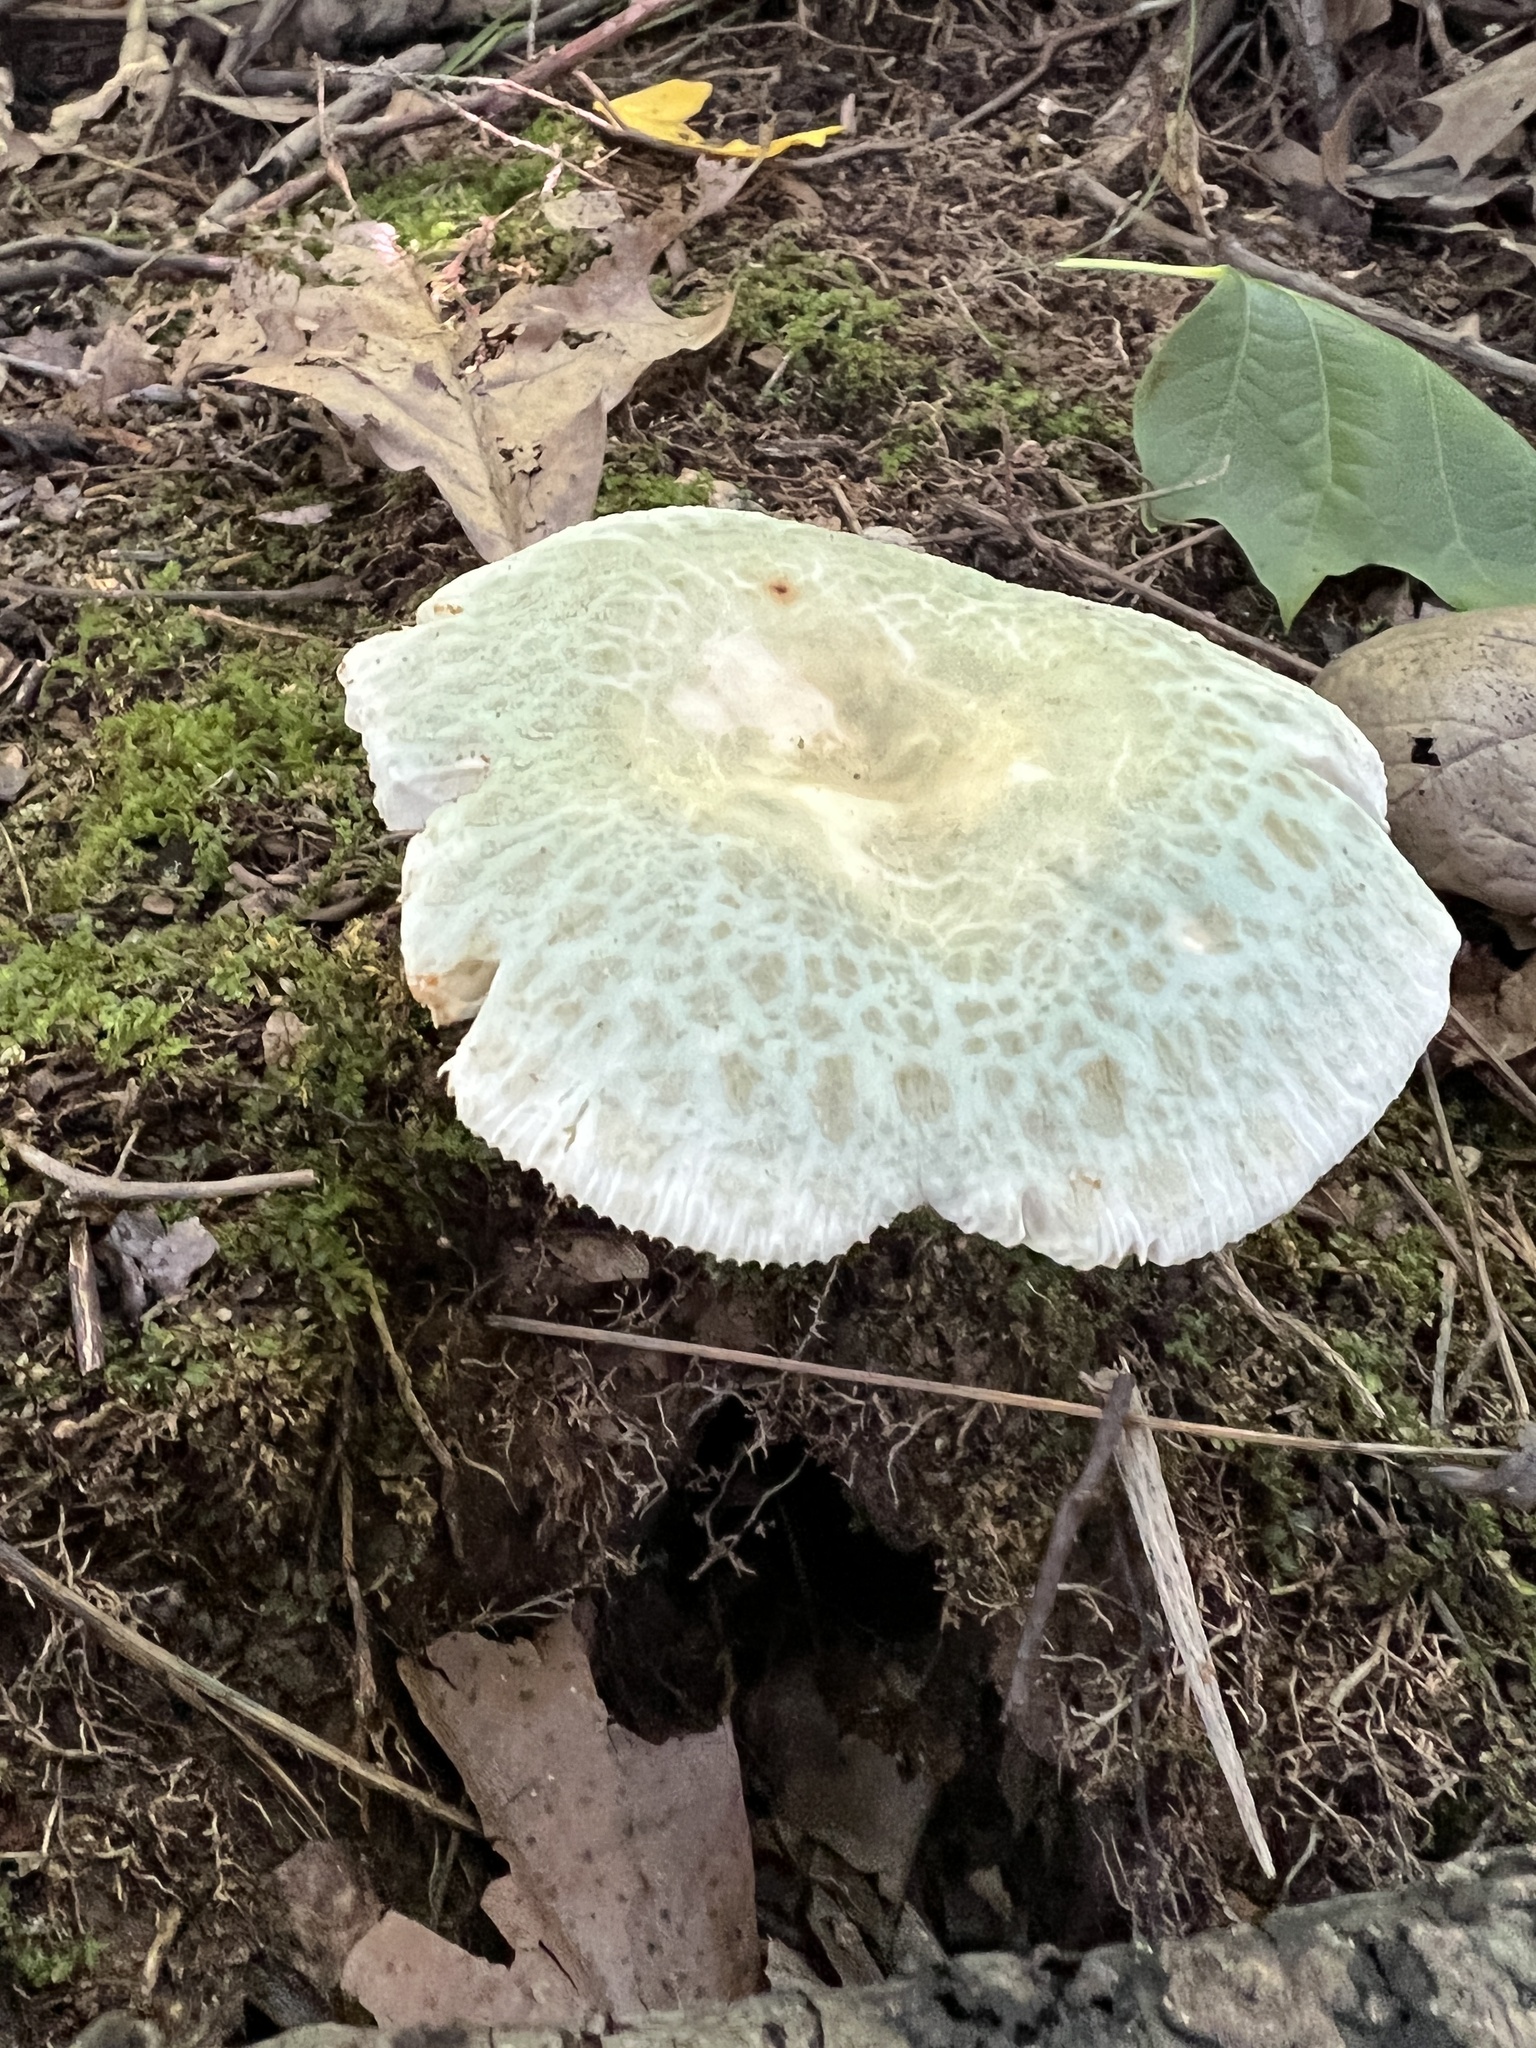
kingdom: Fungi
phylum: Basidiomycota
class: Agaricomycetes
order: Russulales
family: Russulaceae
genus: Russula
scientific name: Russula crustosa
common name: Green quilt russula
